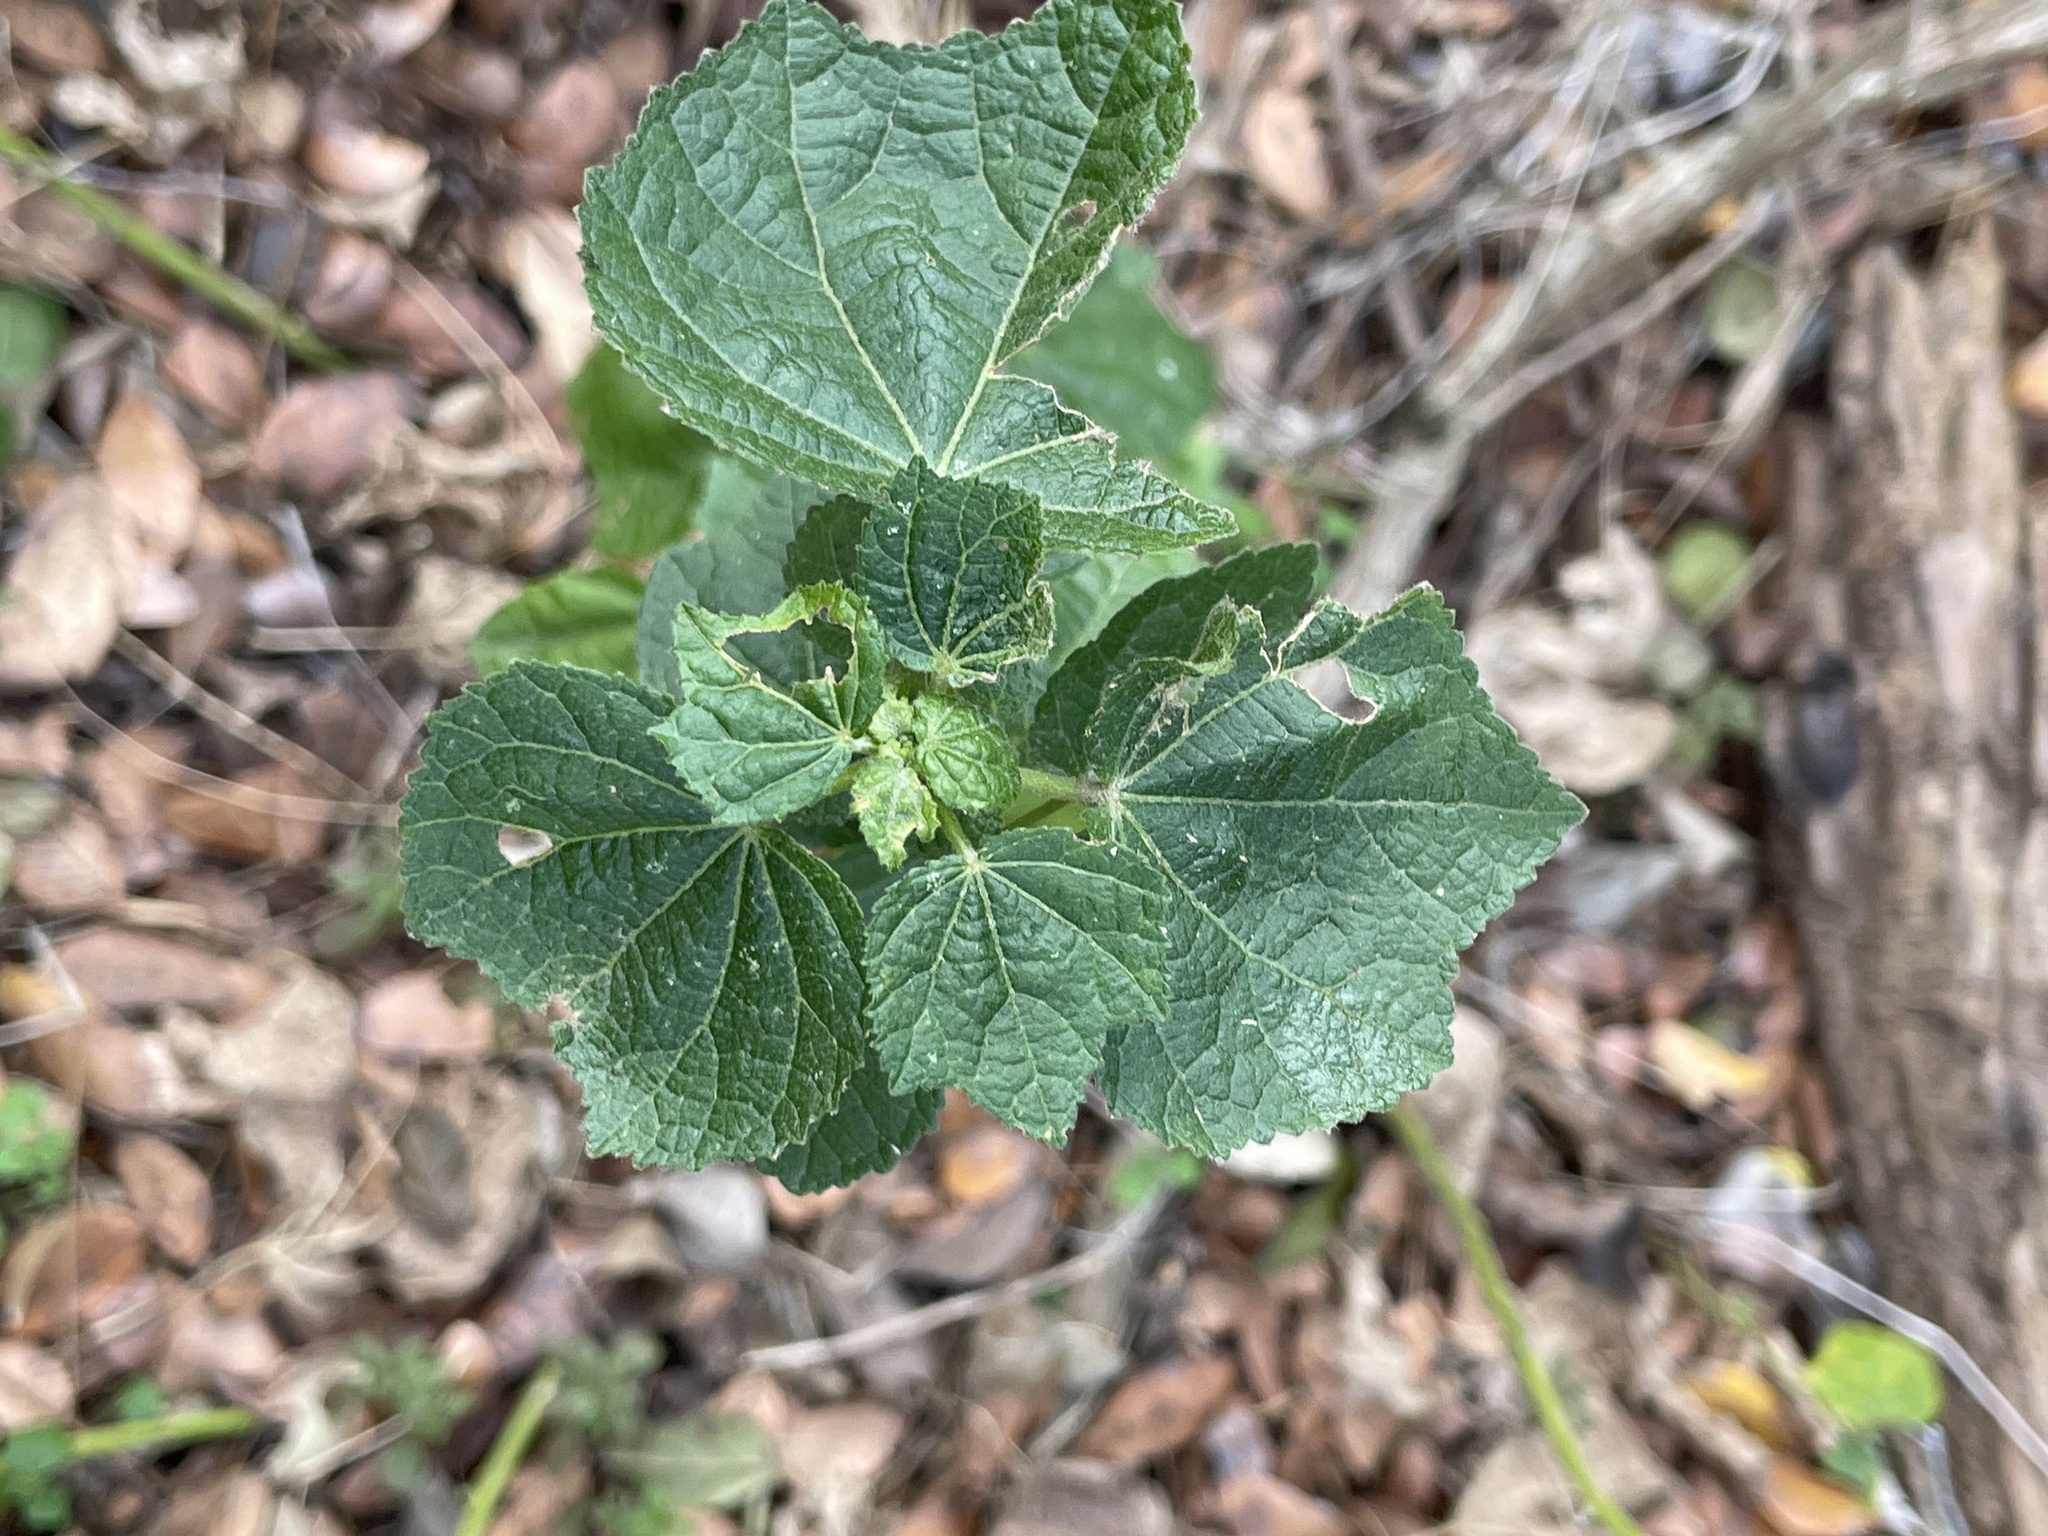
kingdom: Plantae
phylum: Tracheophyta
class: Magnoliopsida
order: Malvales
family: Malvaceae
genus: Malvaviscus
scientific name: Malvaviscus arboreus
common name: Wax mallow
